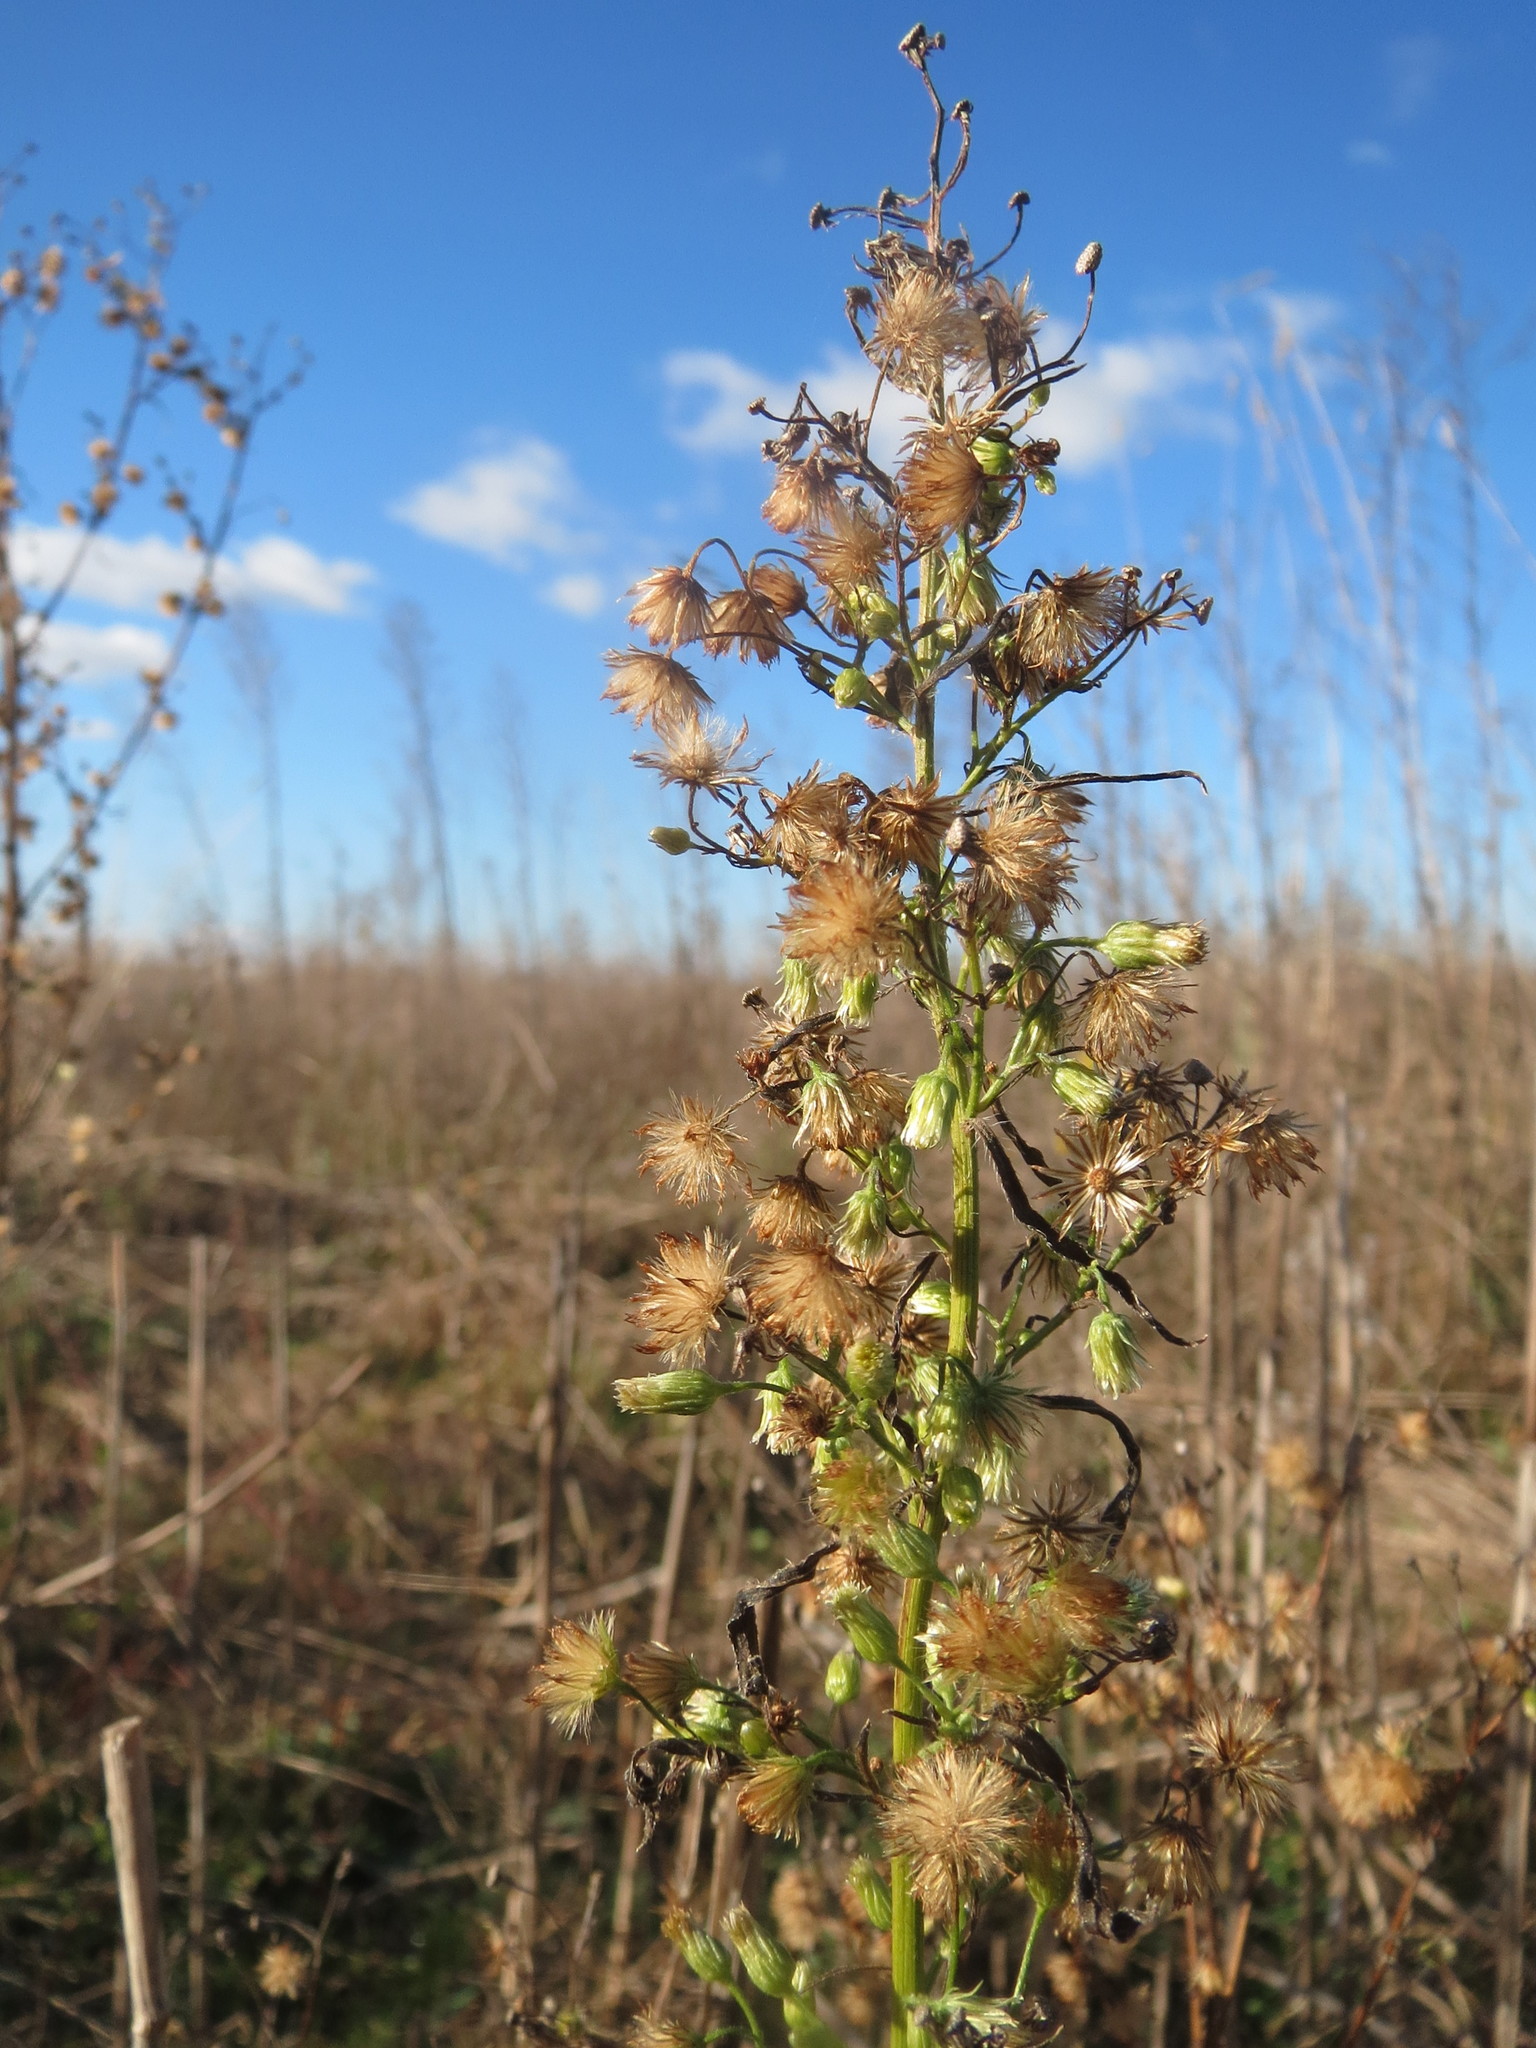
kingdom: Plantae
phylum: Tracheophyta
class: Magnoliopsida
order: Asterales
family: Asteraceae
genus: Erigeron
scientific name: Erigeron canadensis
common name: Canadian fleabane
